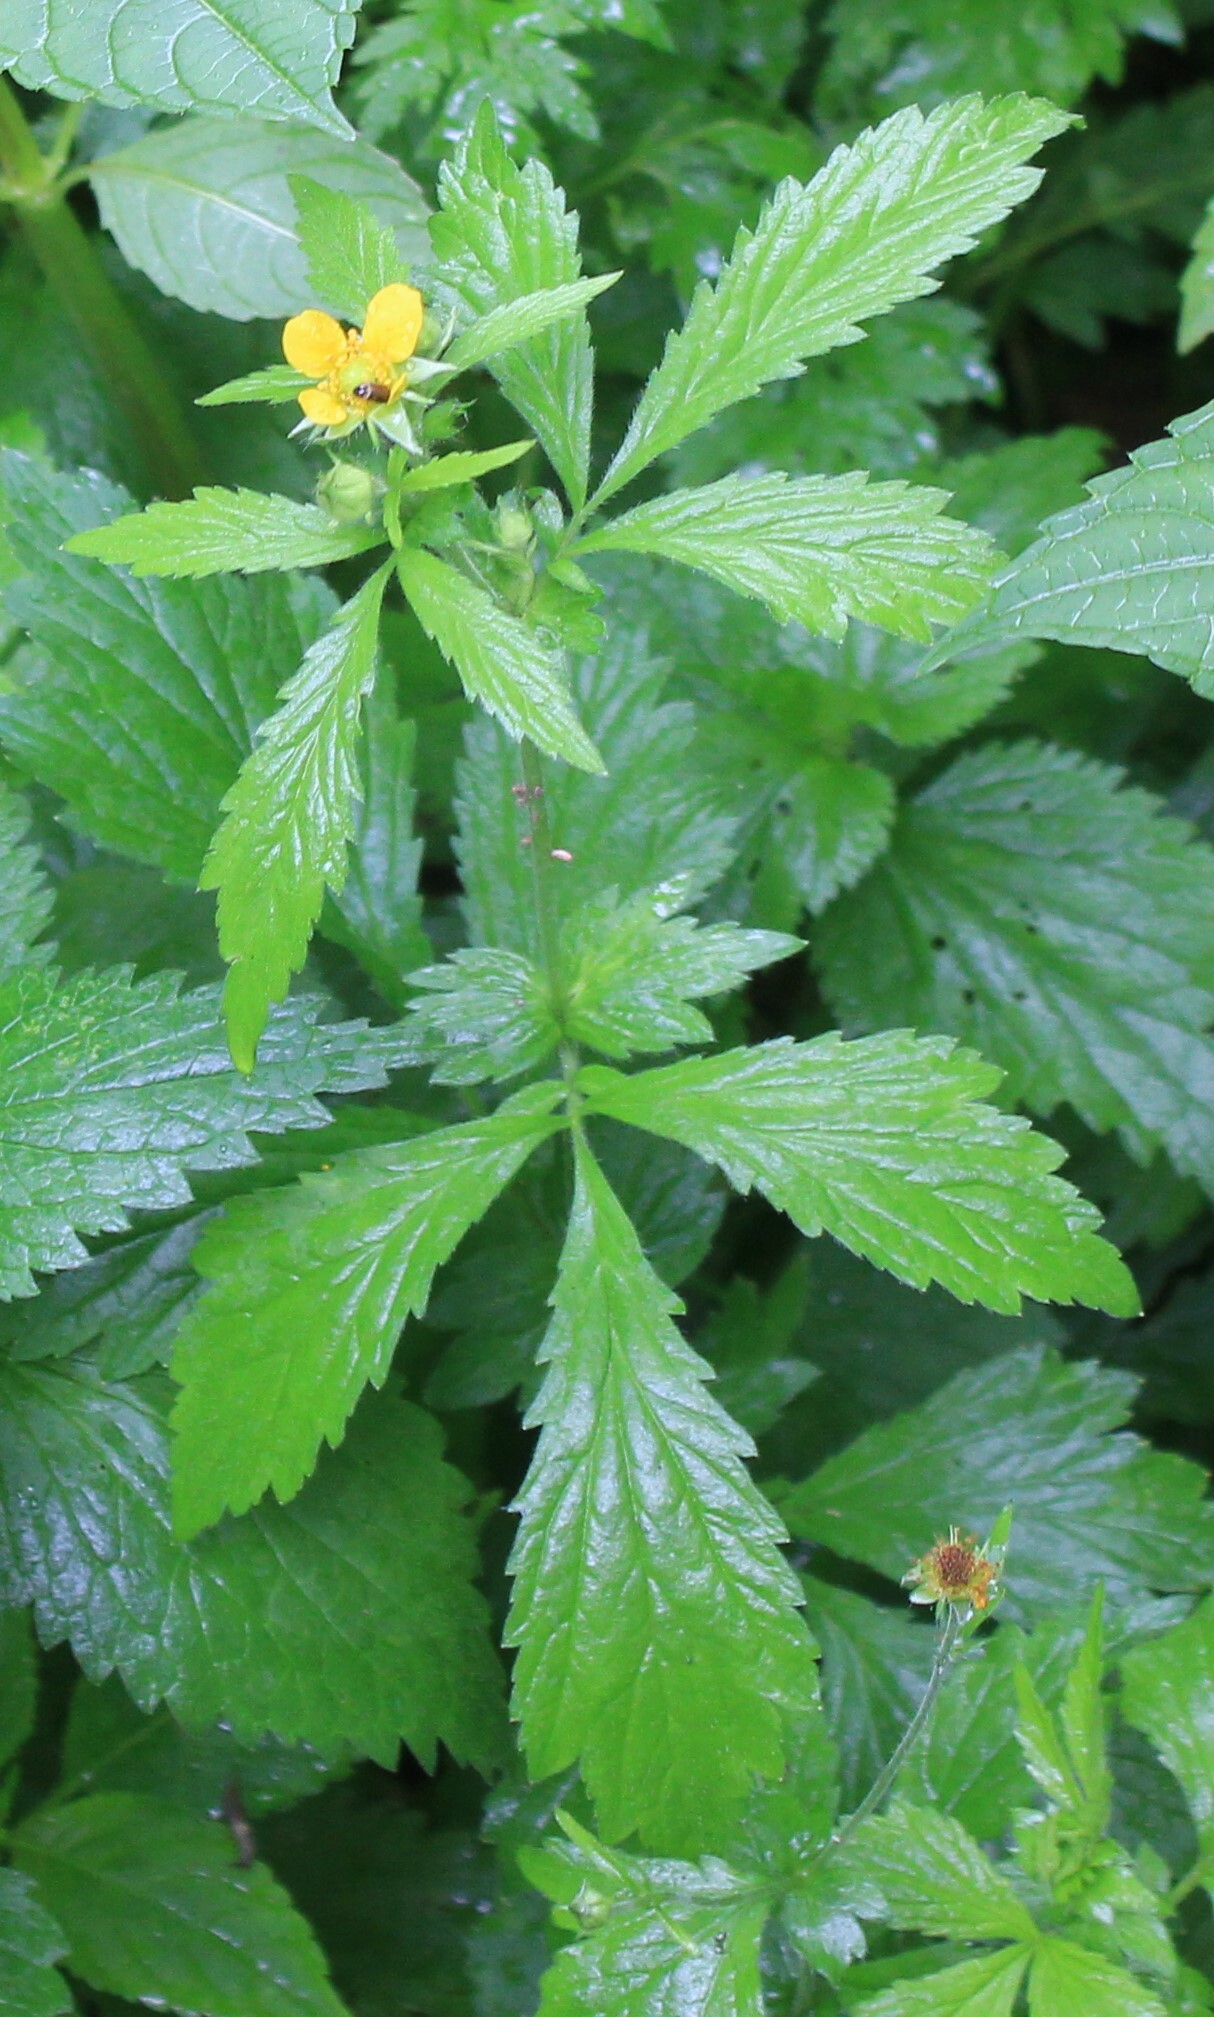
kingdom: Plantae
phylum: Tracheophyta
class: Magnoliopsida
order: Rosales
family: Rosaceae
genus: Geum
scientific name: Geum aleppicum
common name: Yellow avens
